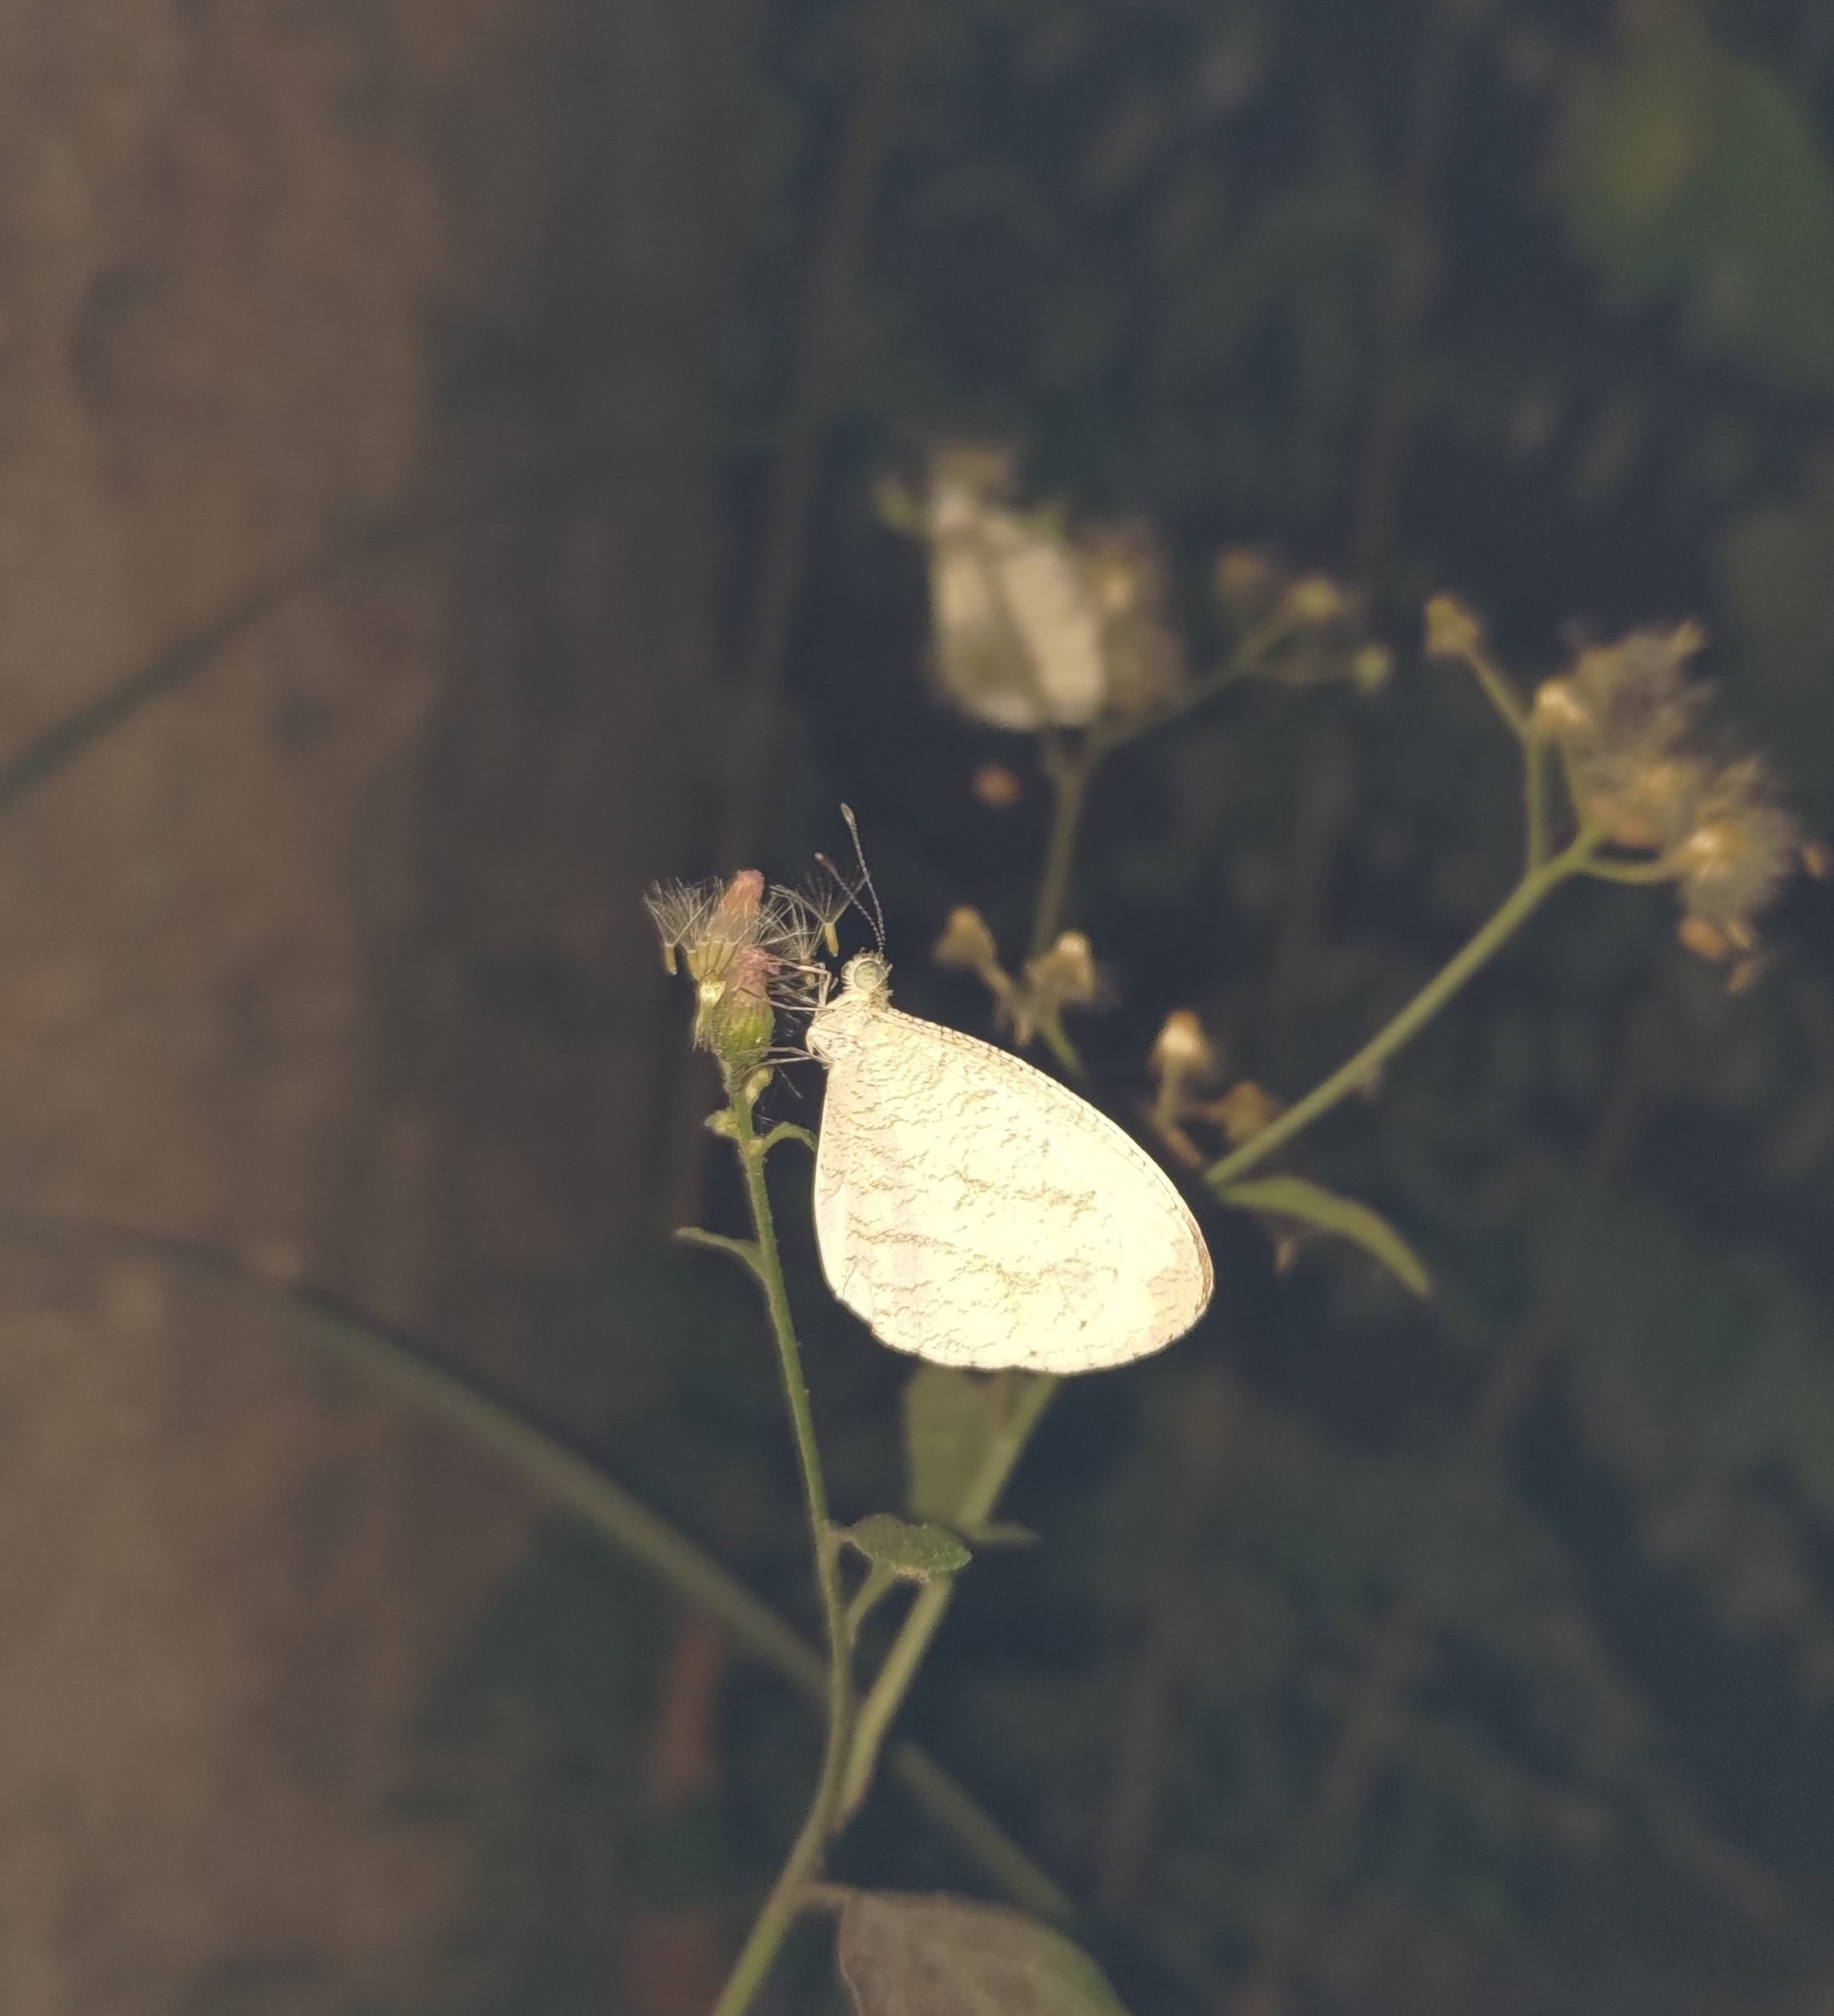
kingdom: Animalia
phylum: Arthropoda
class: Insecta
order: Lepidoptera
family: Pieridae
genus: Leptosia
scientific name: Leptosia nina
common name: Psyche
